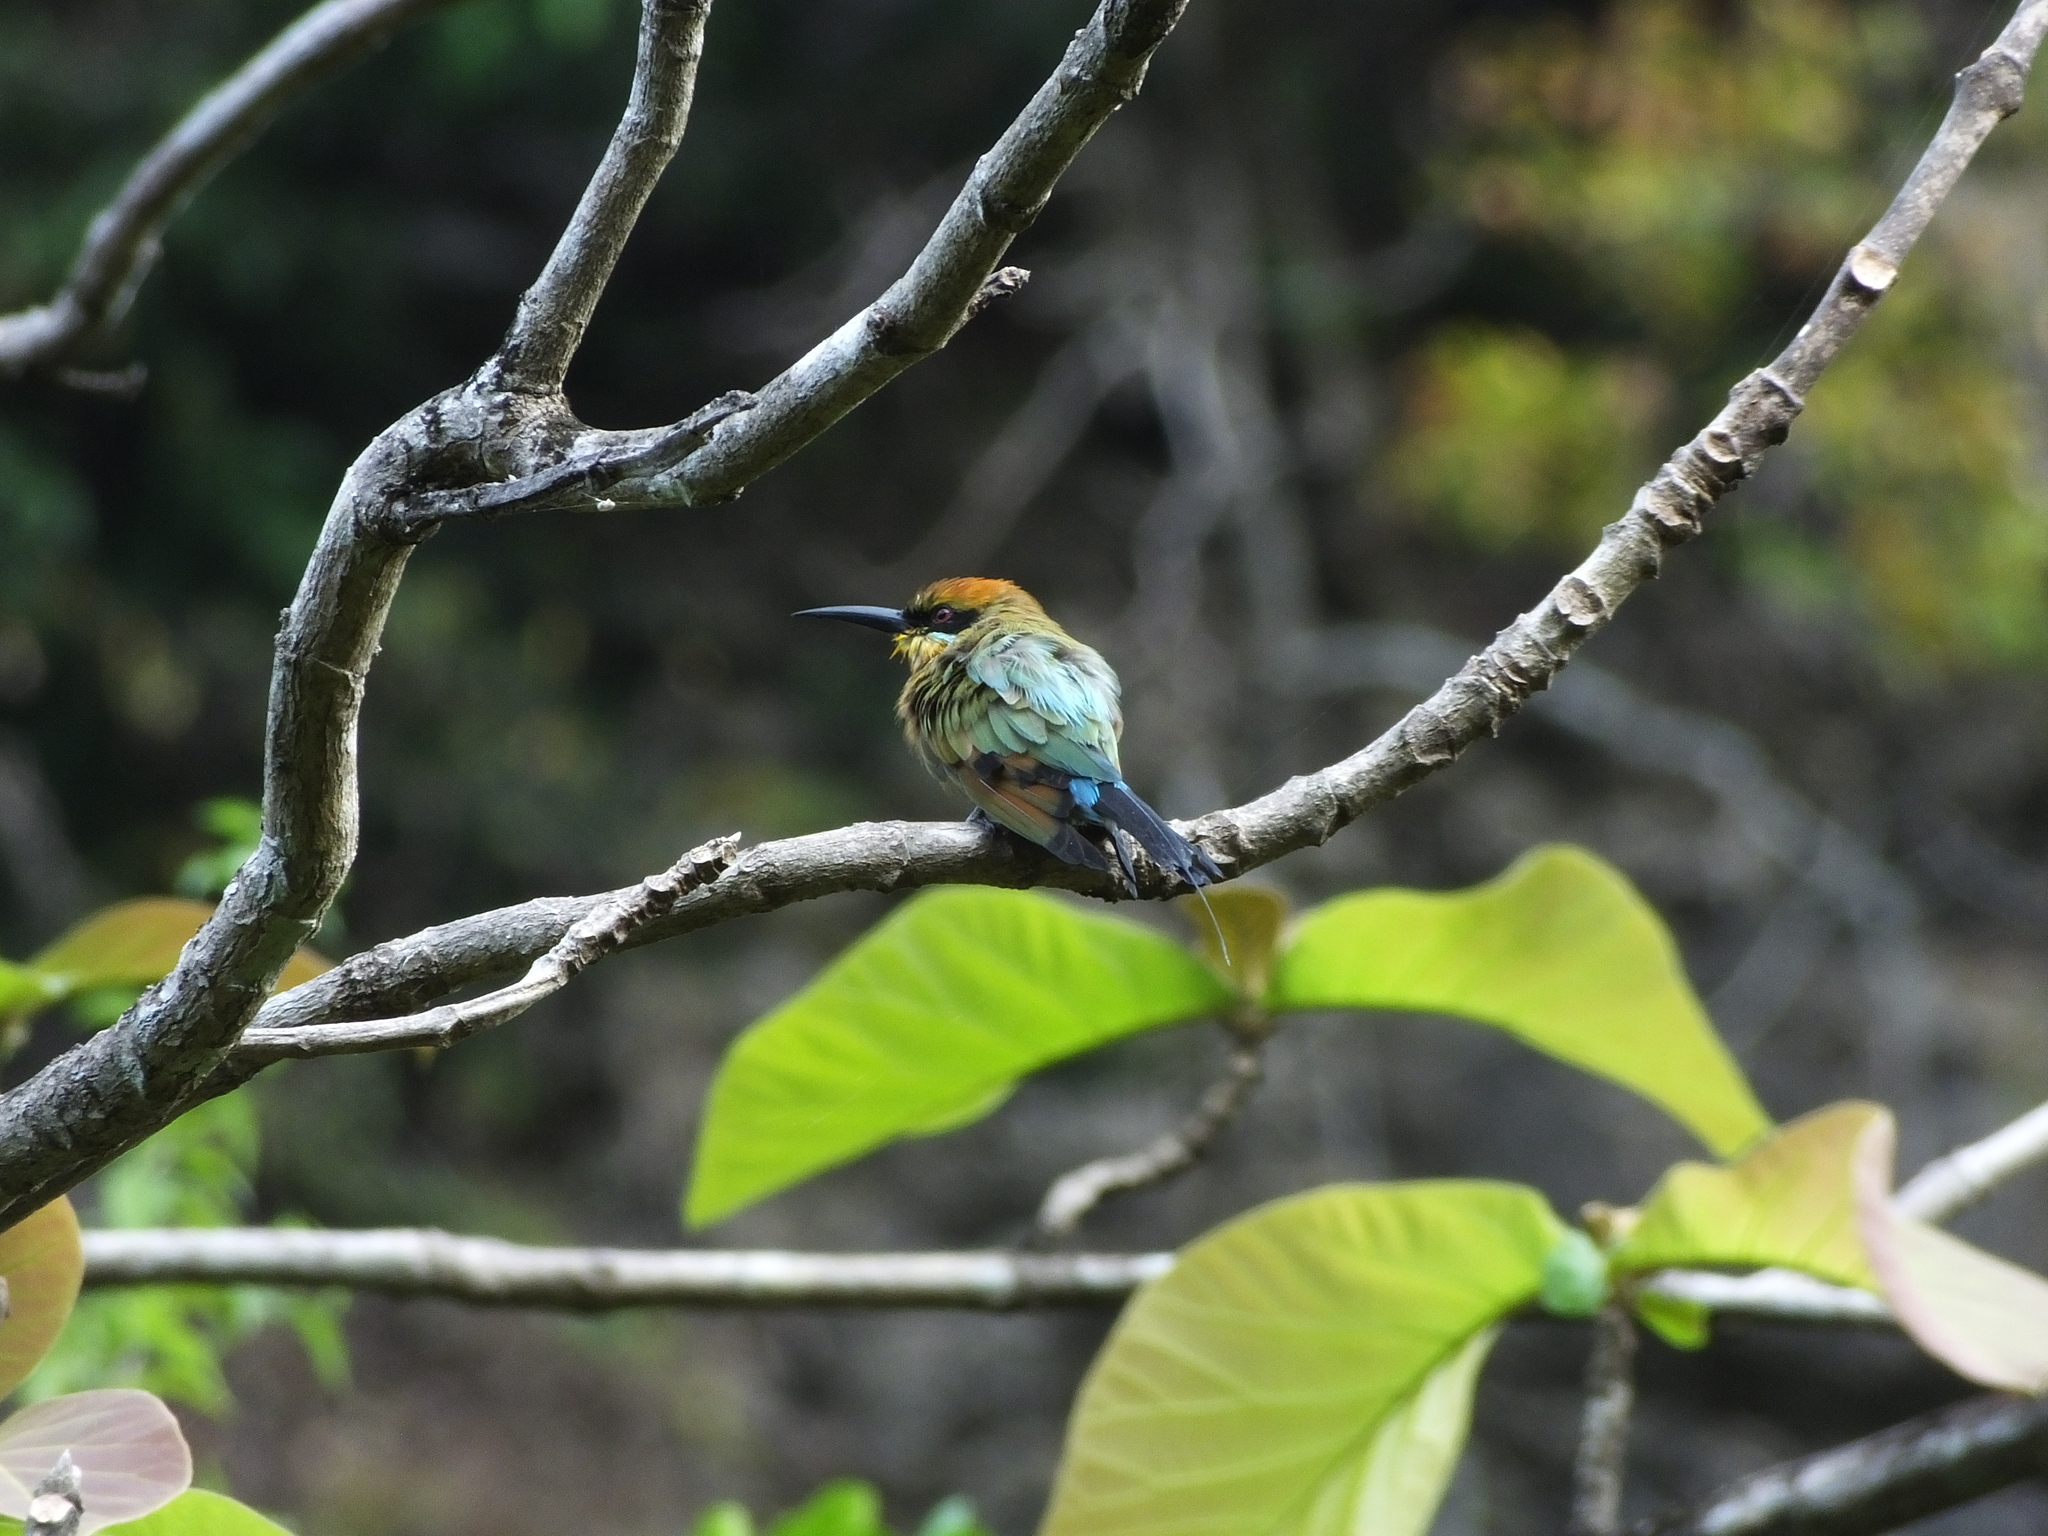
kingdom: Animalia
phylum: Chordata
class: Aves
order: Coraciiformes
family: Meropidae
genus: Merops
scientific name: Merops ornatus
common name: Rainbow bee-eater
